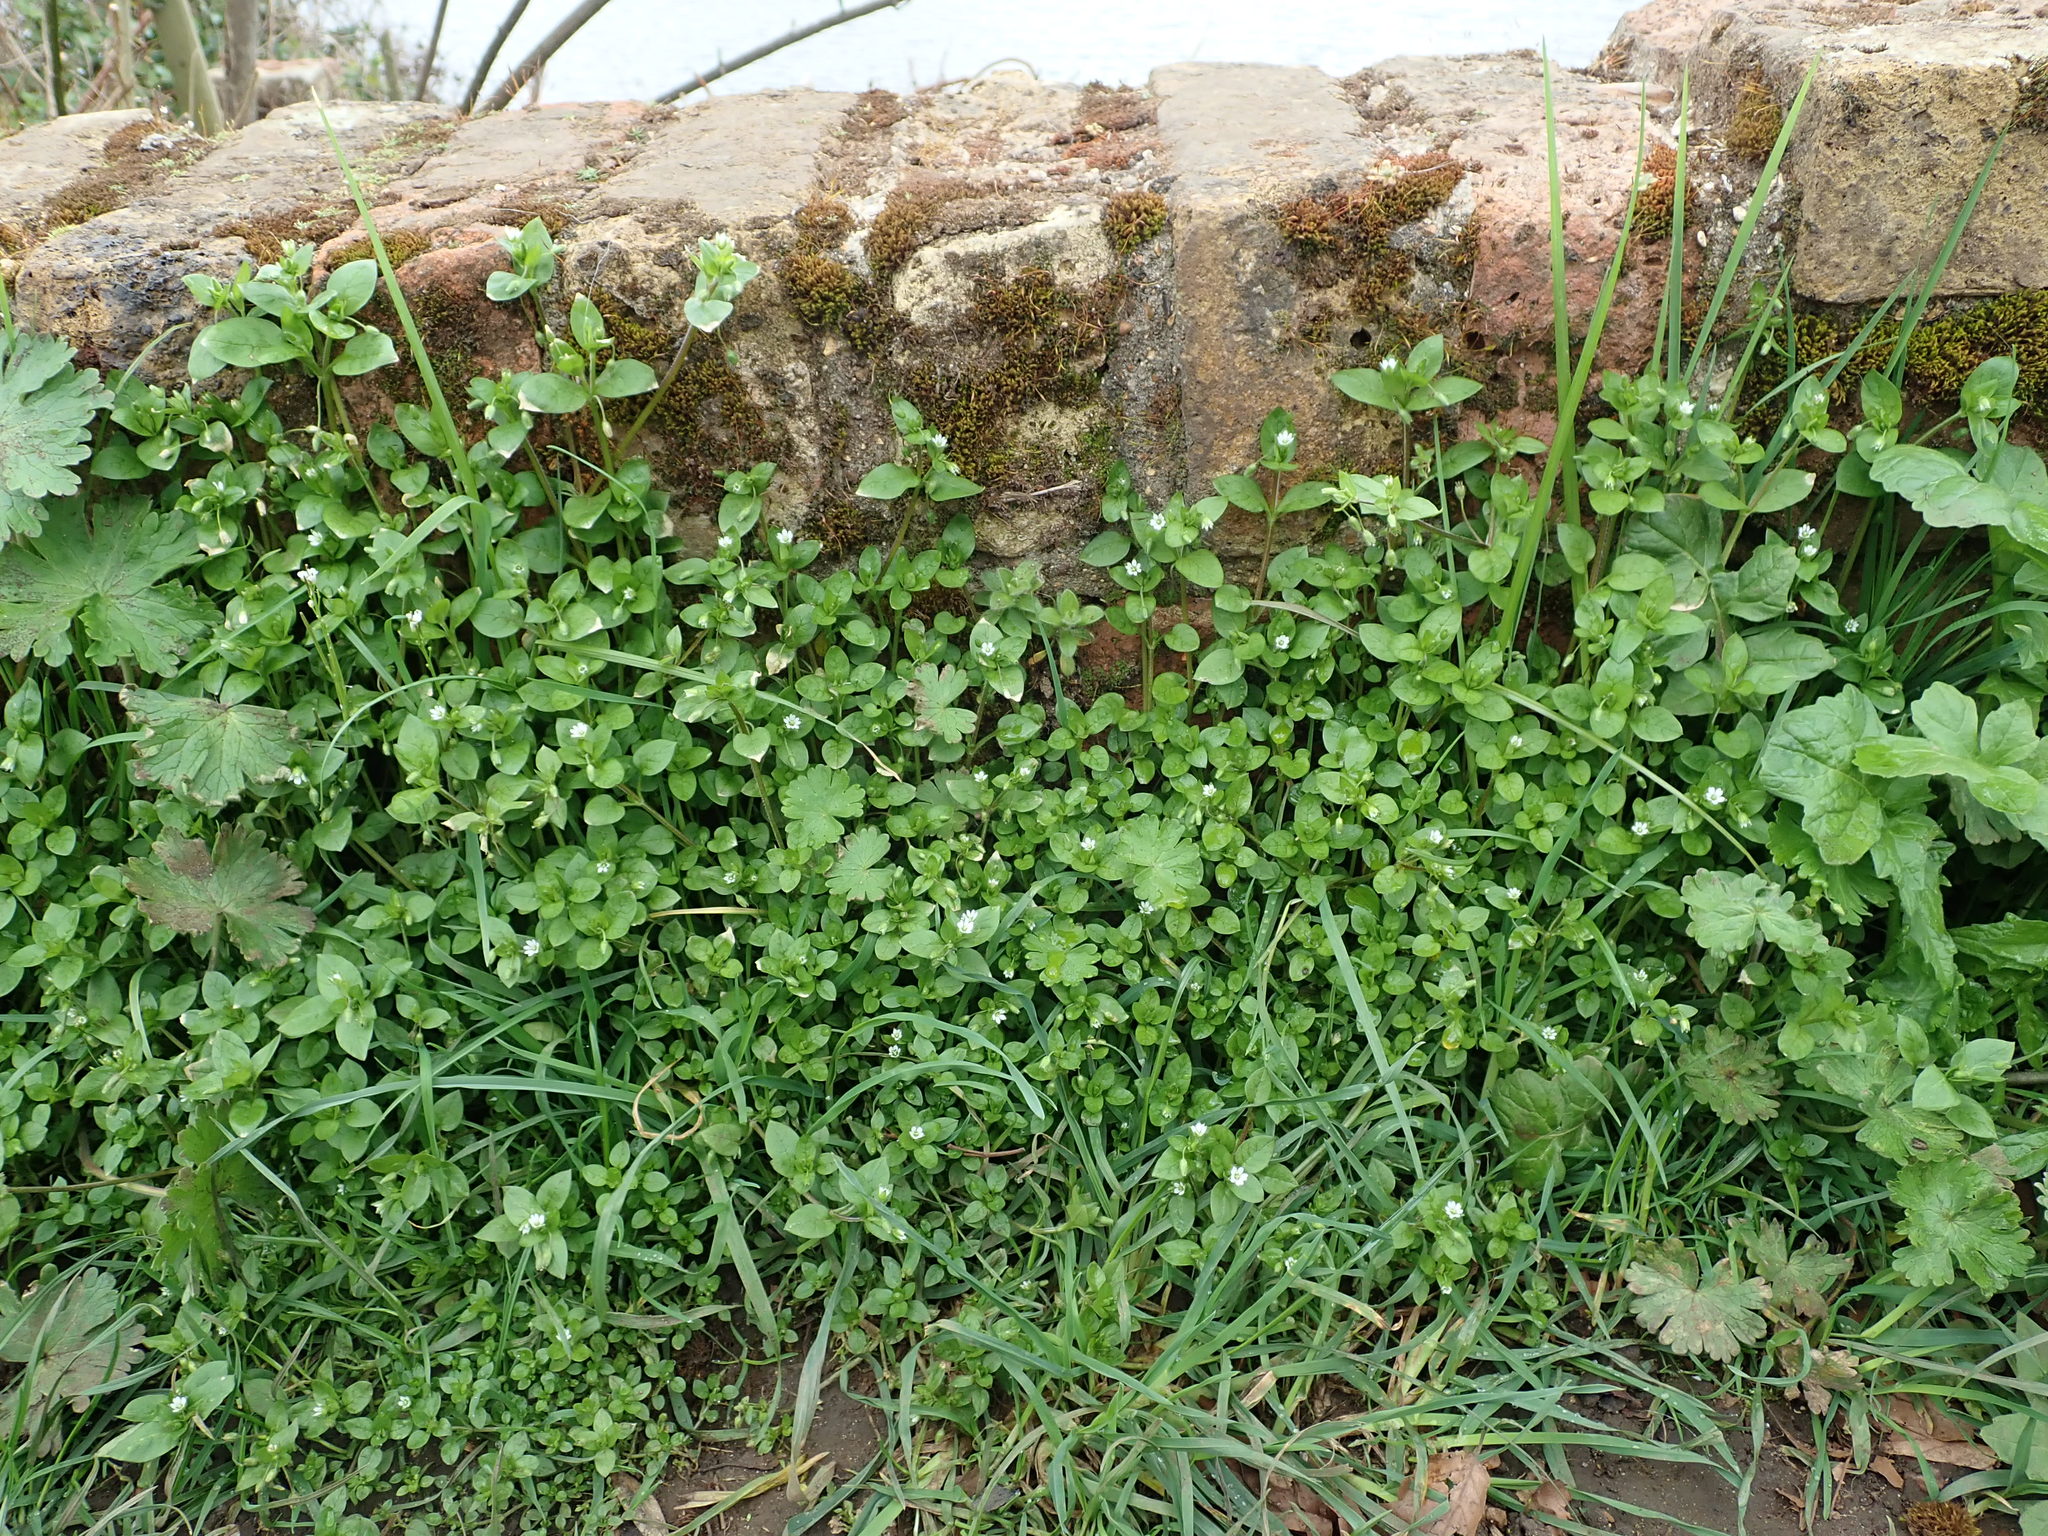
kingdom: Plantae
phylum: Tracheophyta
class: Magnoliopsida
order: Caryophyllales
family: Caryophyllaceae
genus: Stellaria
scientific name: Stellaria media
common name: Common chickweed
